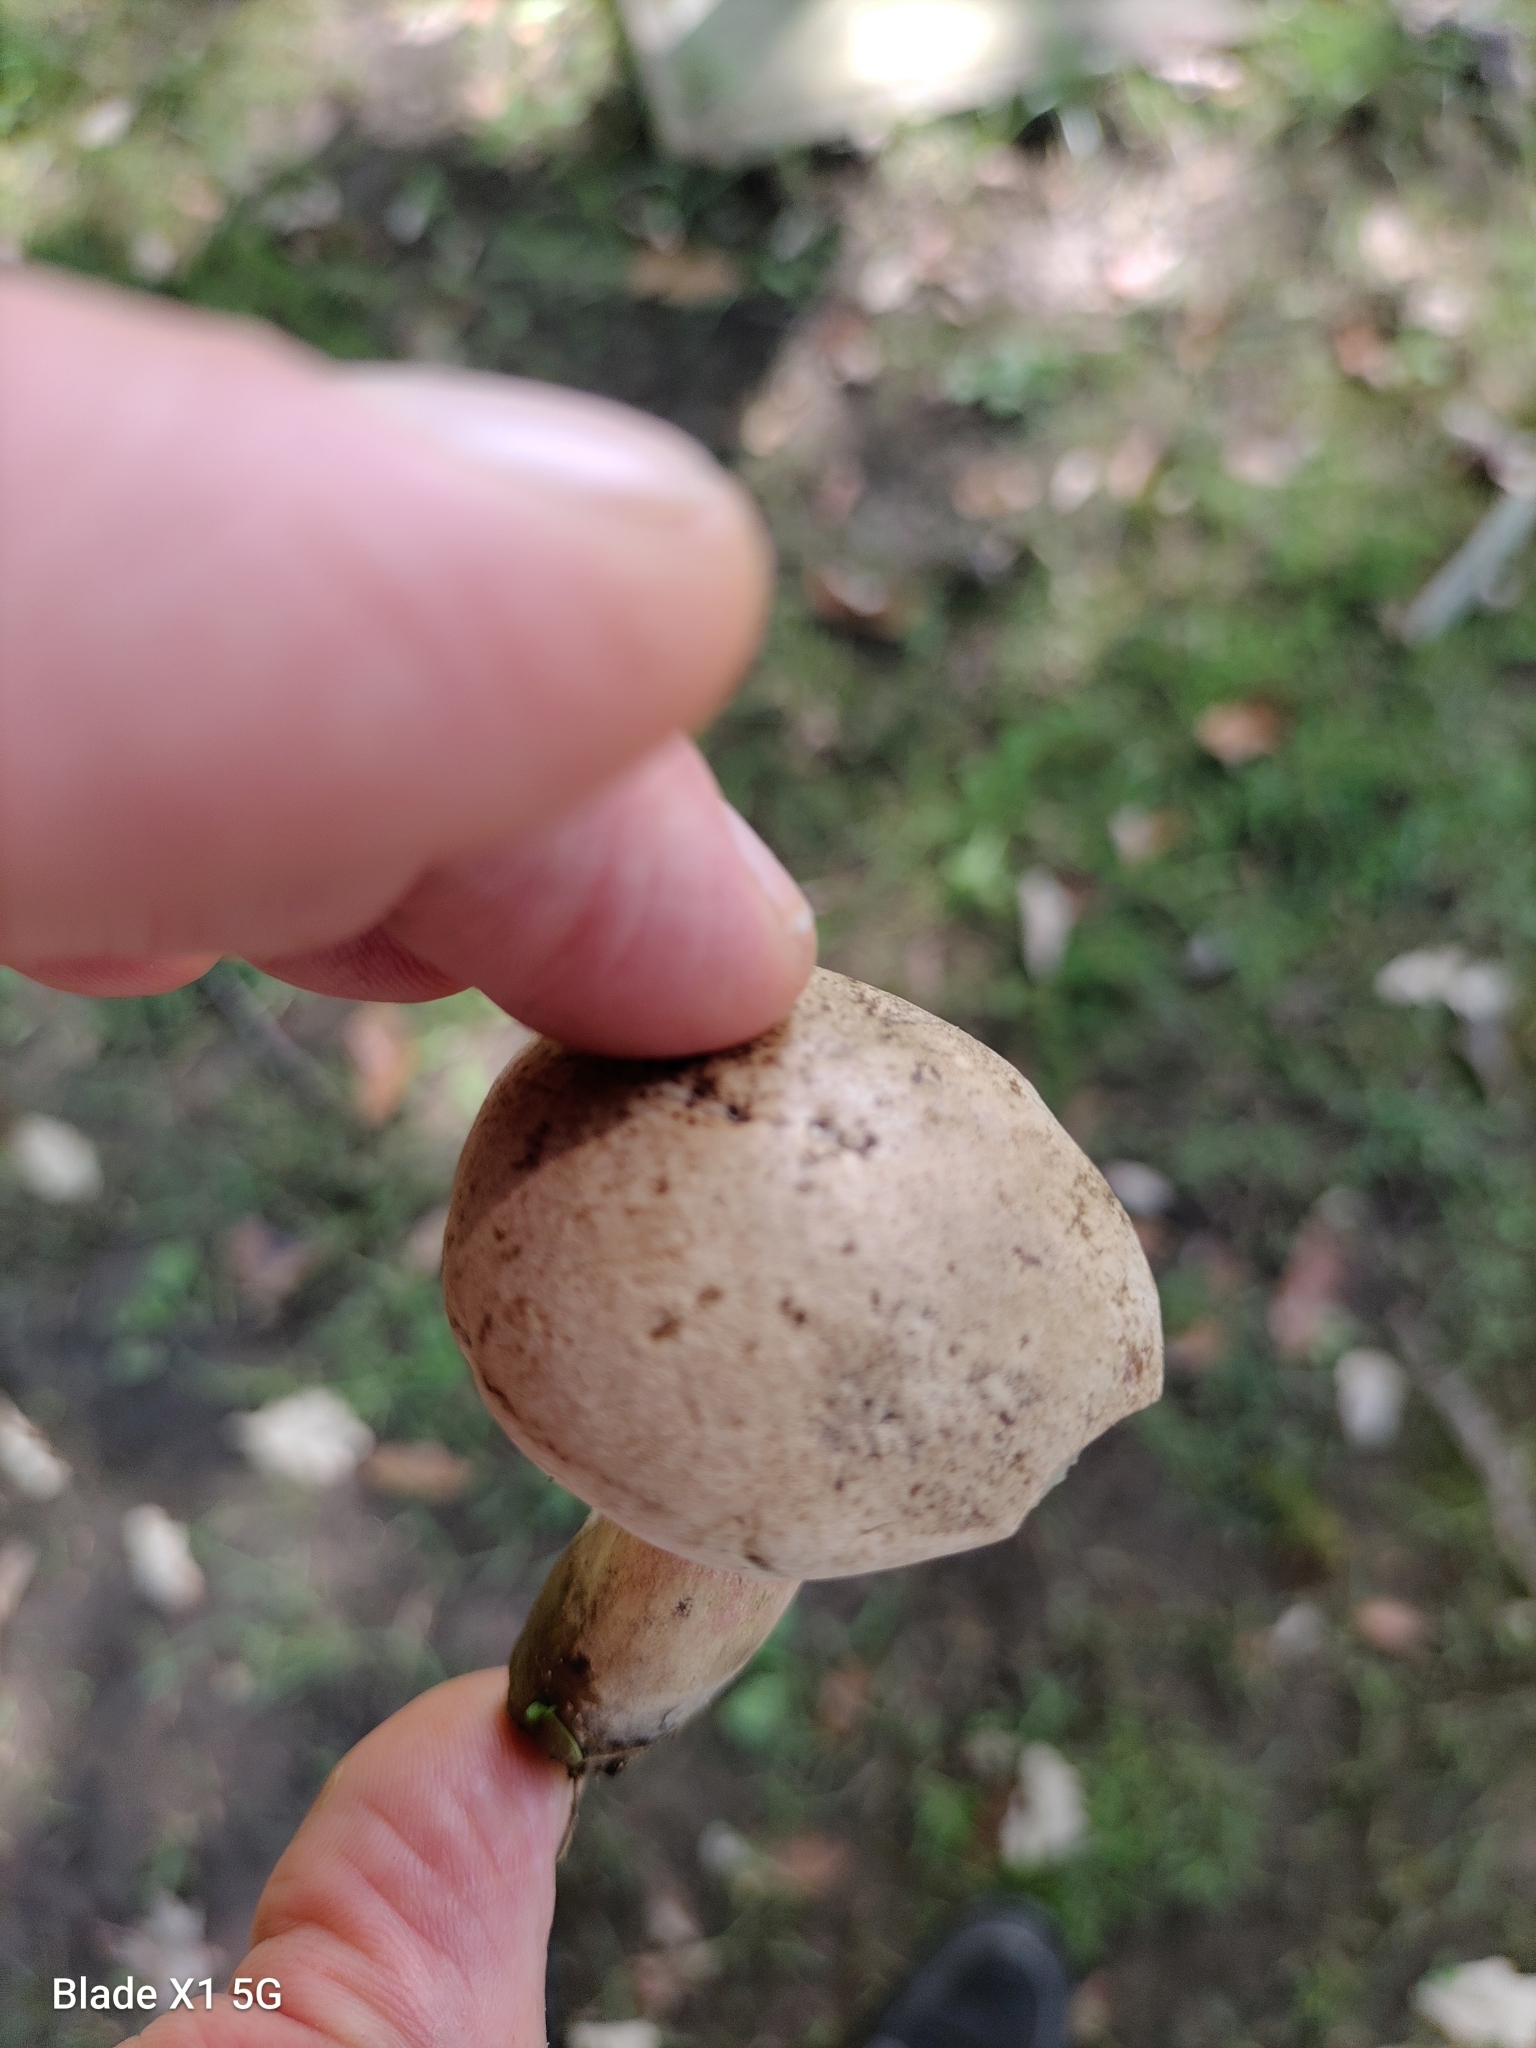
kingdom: Fungi
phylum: Basidiomycota
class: Agaricomycetes
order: Boletales
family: Boletaceae
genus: Caloboletus
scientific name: Caloboletus inedulis
